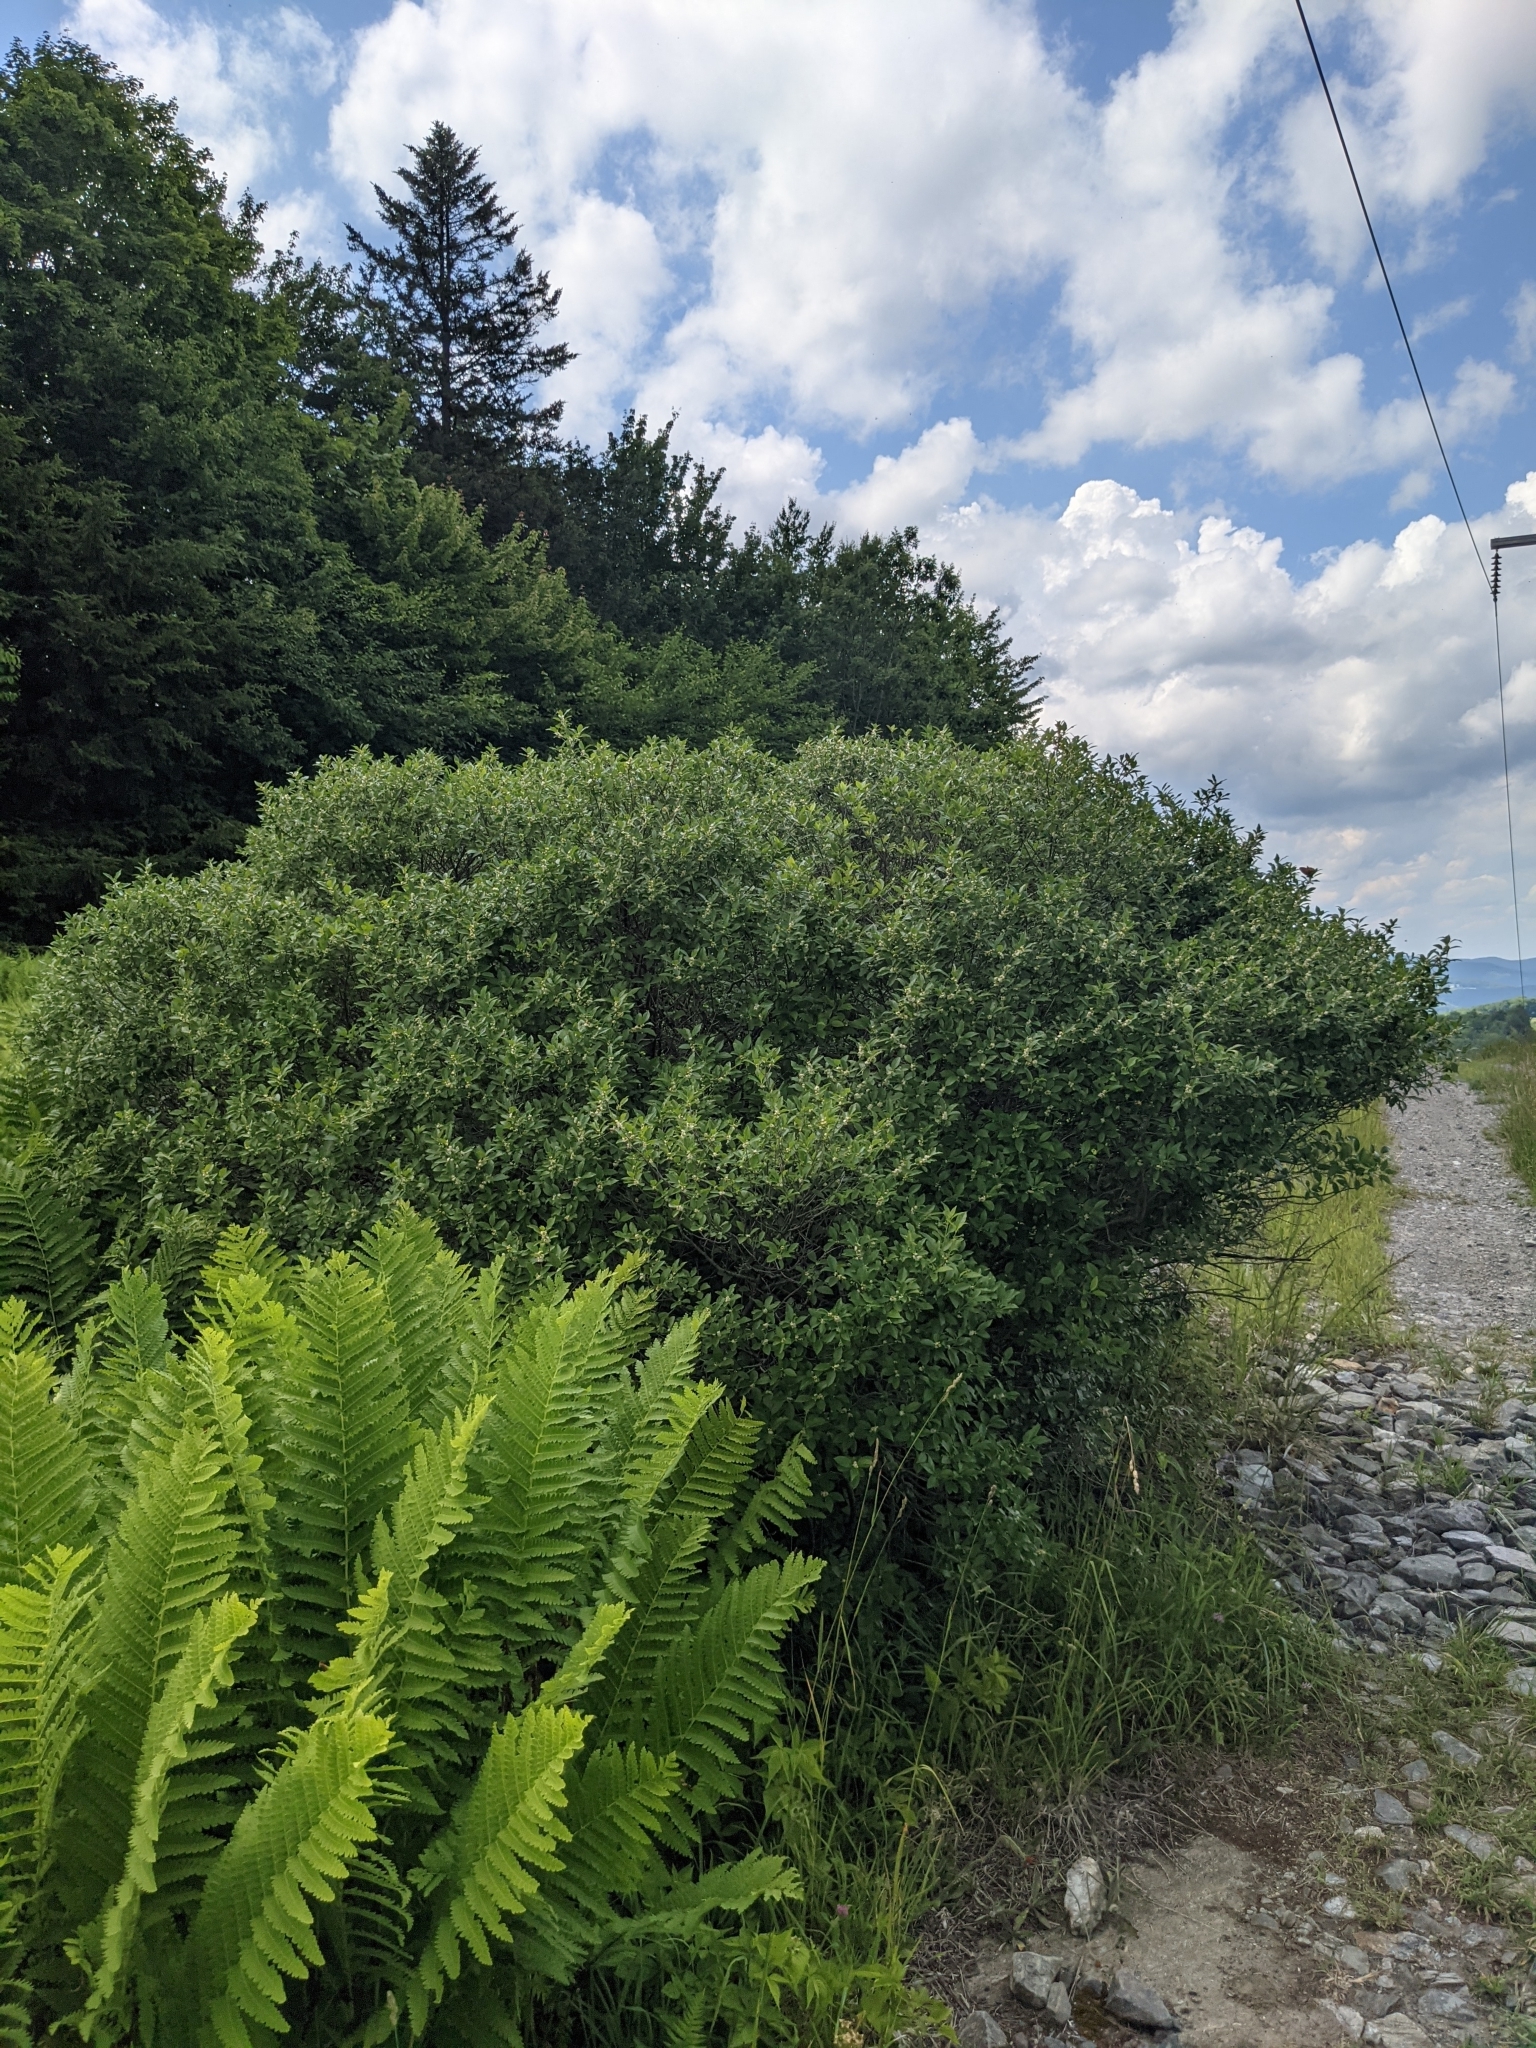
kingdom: Plantae
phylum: Tracheophyta
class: Magnoliopsida
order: Aquifoliales
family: Aquifoliaceae
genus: Ilex
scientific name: Ilex verticillata
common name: Virginia winterberry
